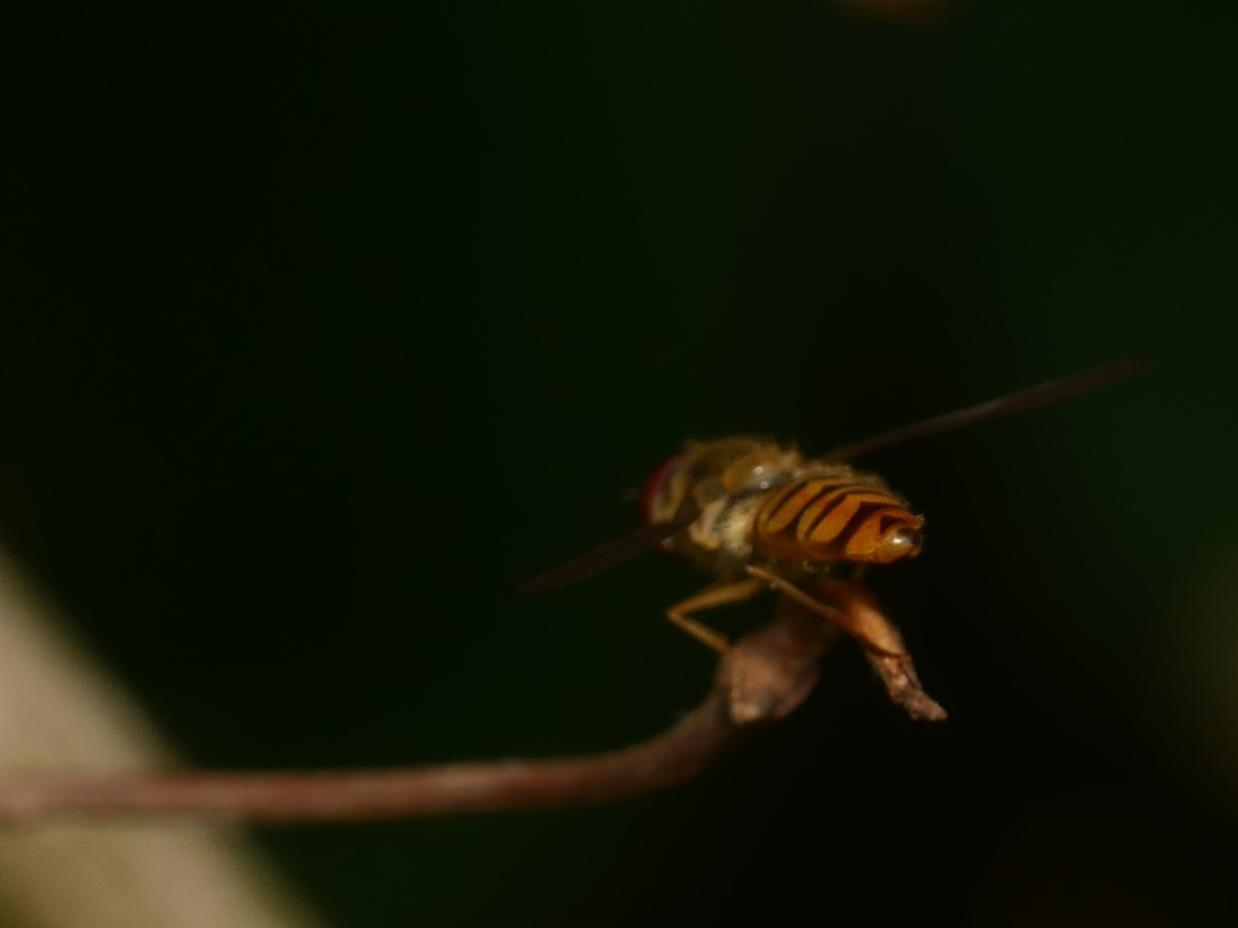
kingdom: Animalia
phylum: Arthropoda
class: Insecta
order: Diptera
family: Syrphidae
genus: Episyrphus
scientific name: Episyrphus balteatus
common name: Marmalade hoverfly
